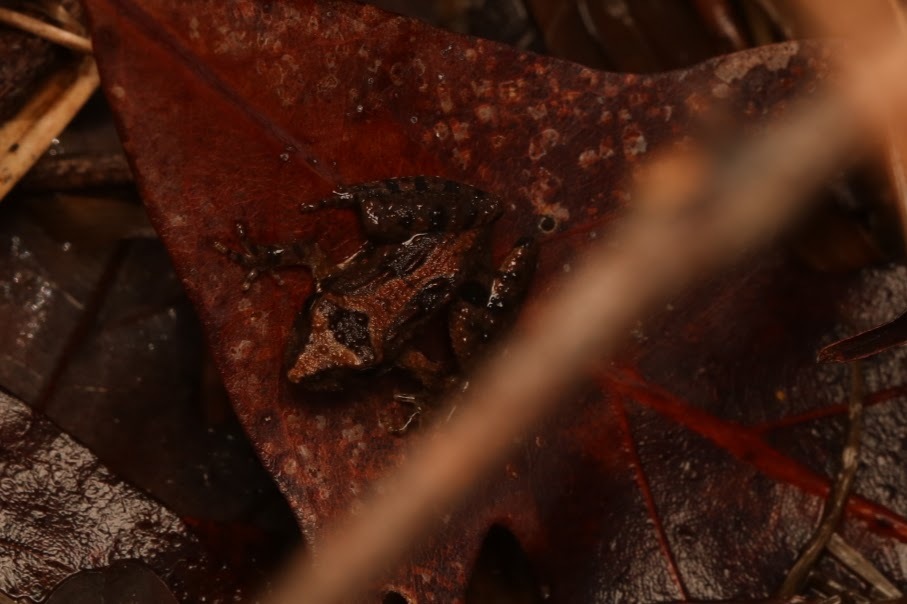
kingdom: Animalia
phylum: Chordata
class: Amphibia
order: Anura
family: Hylidae
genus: Acris
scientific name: Acris crepitans
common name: Northern cricket frog
